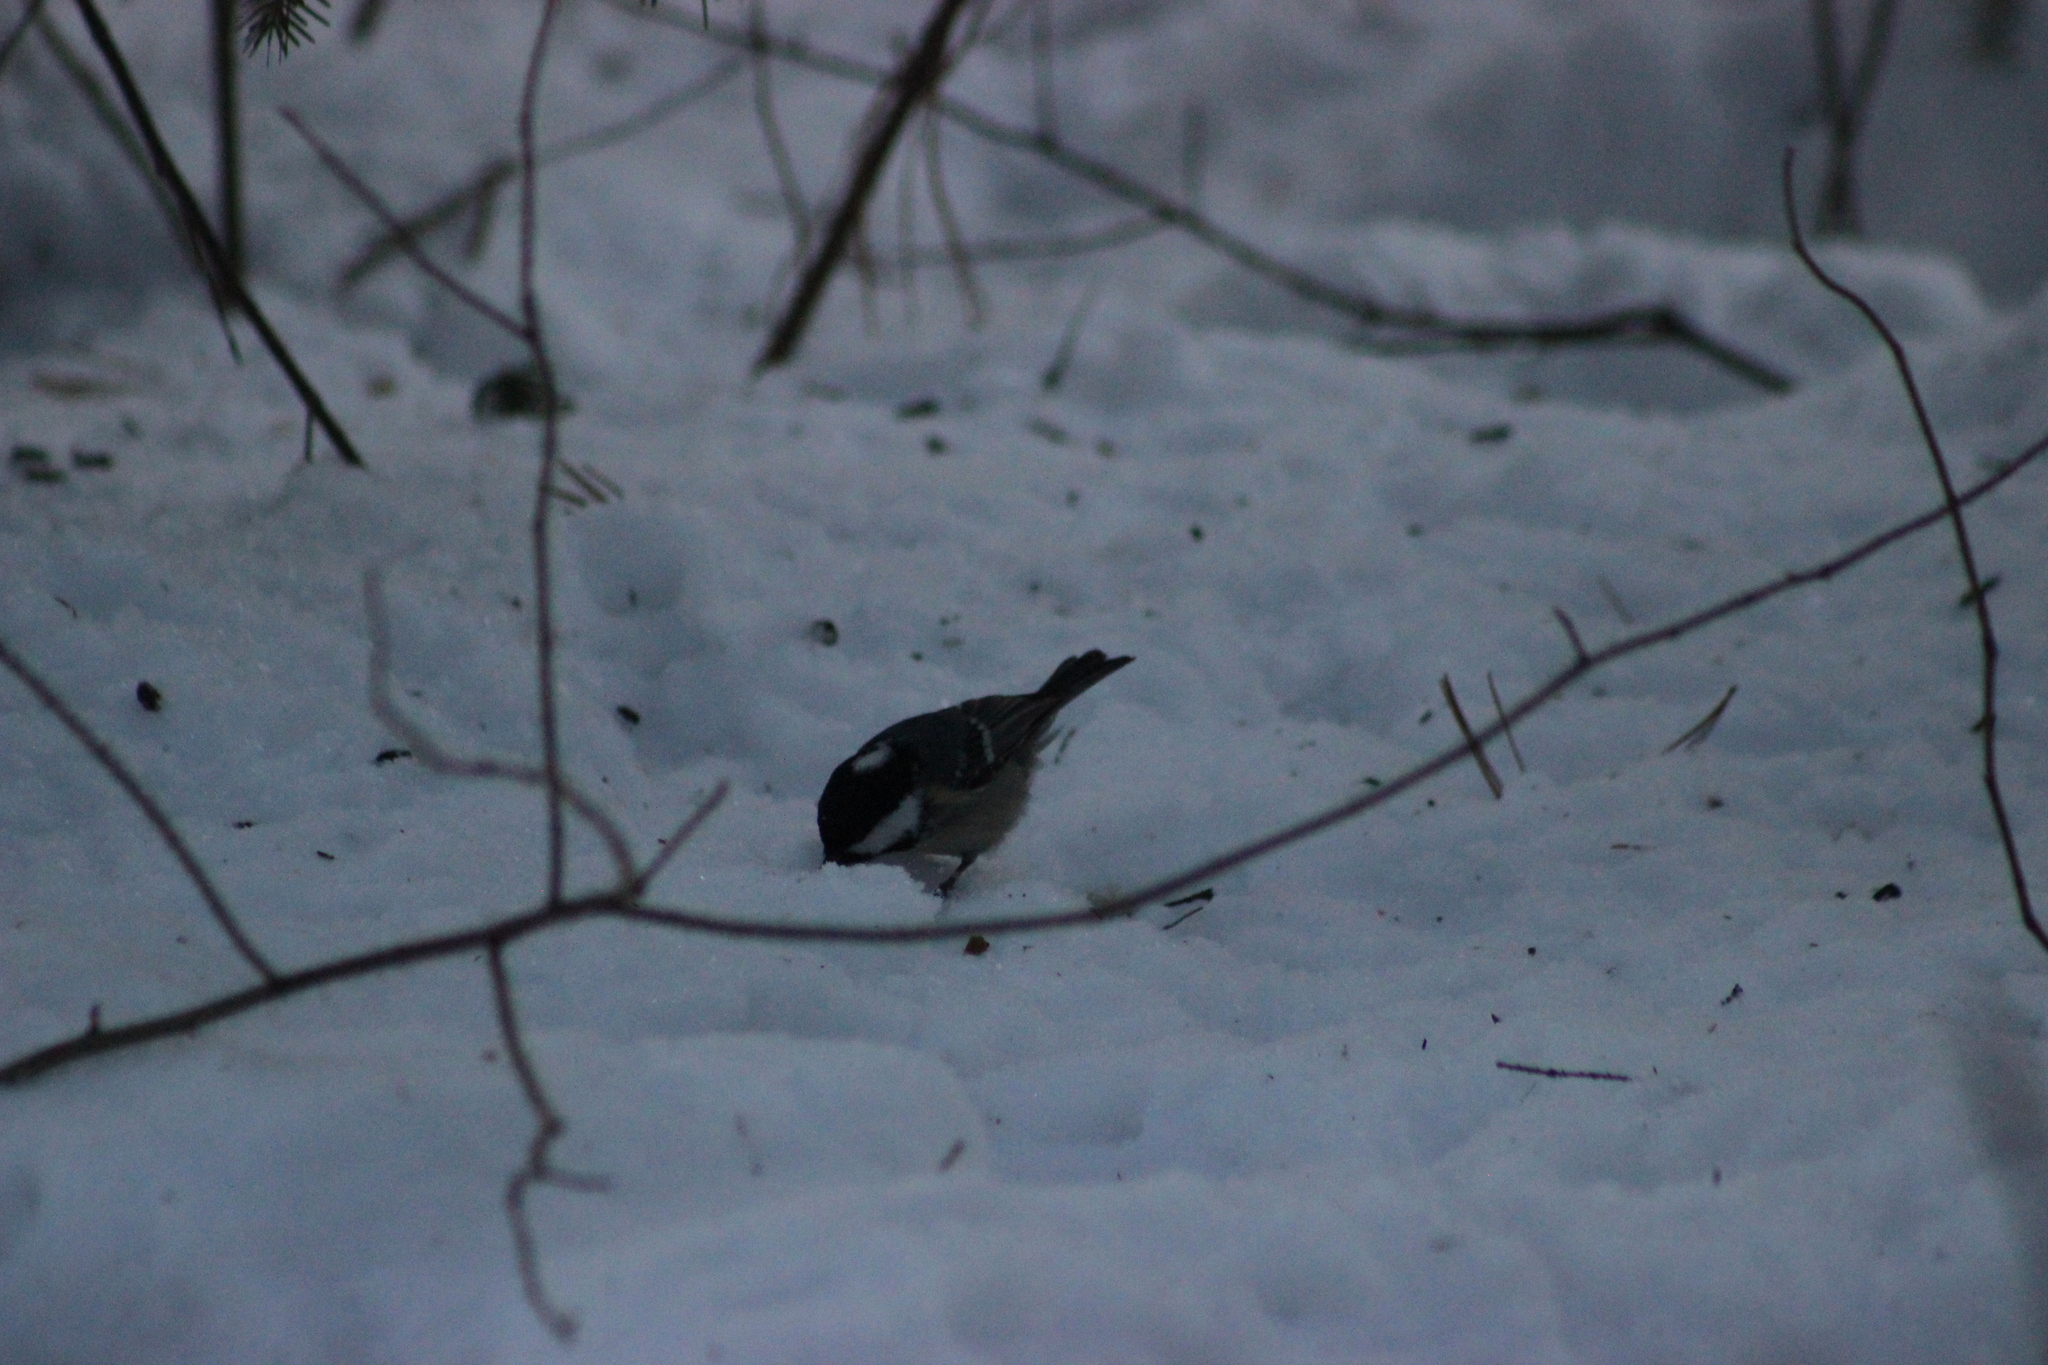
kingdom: Animalia
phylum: Chordata
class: Aves
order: Passeriformes
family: Paridae
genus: Periparus
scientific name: Periparus ater
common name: Coal tit
